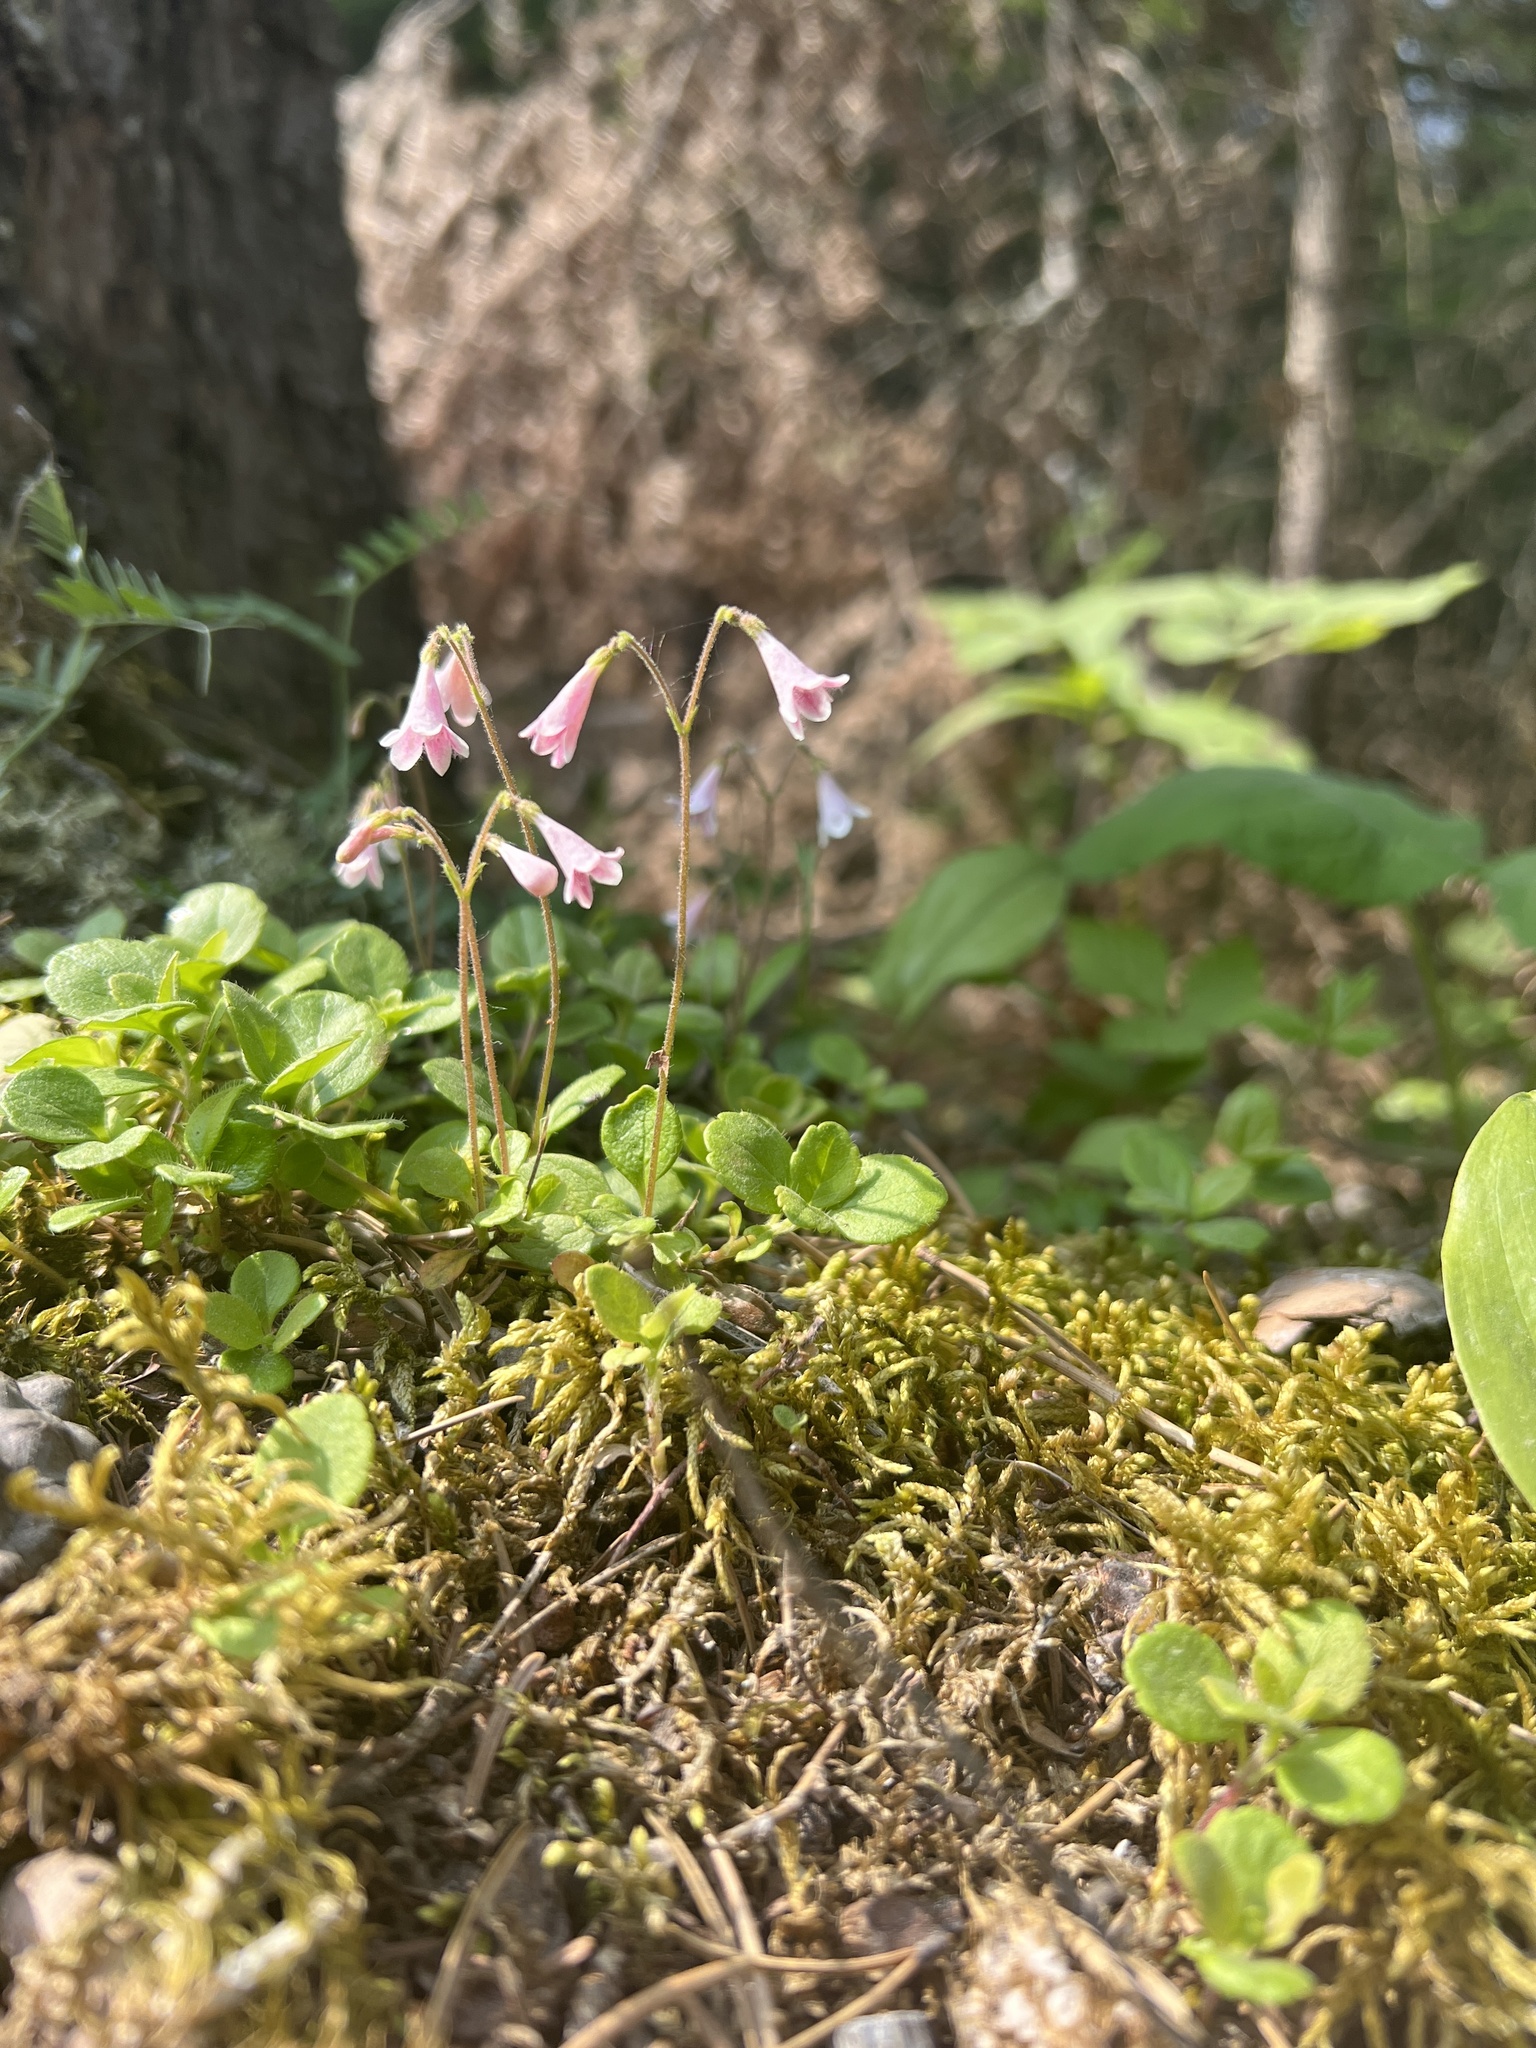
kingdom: Plantae
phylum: Tracheophyta
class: Magnoliopsida
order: Dipsacales
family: Caprifoliaceae
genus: Linnaea
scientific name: Linnaea borealis
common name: Twinflower
